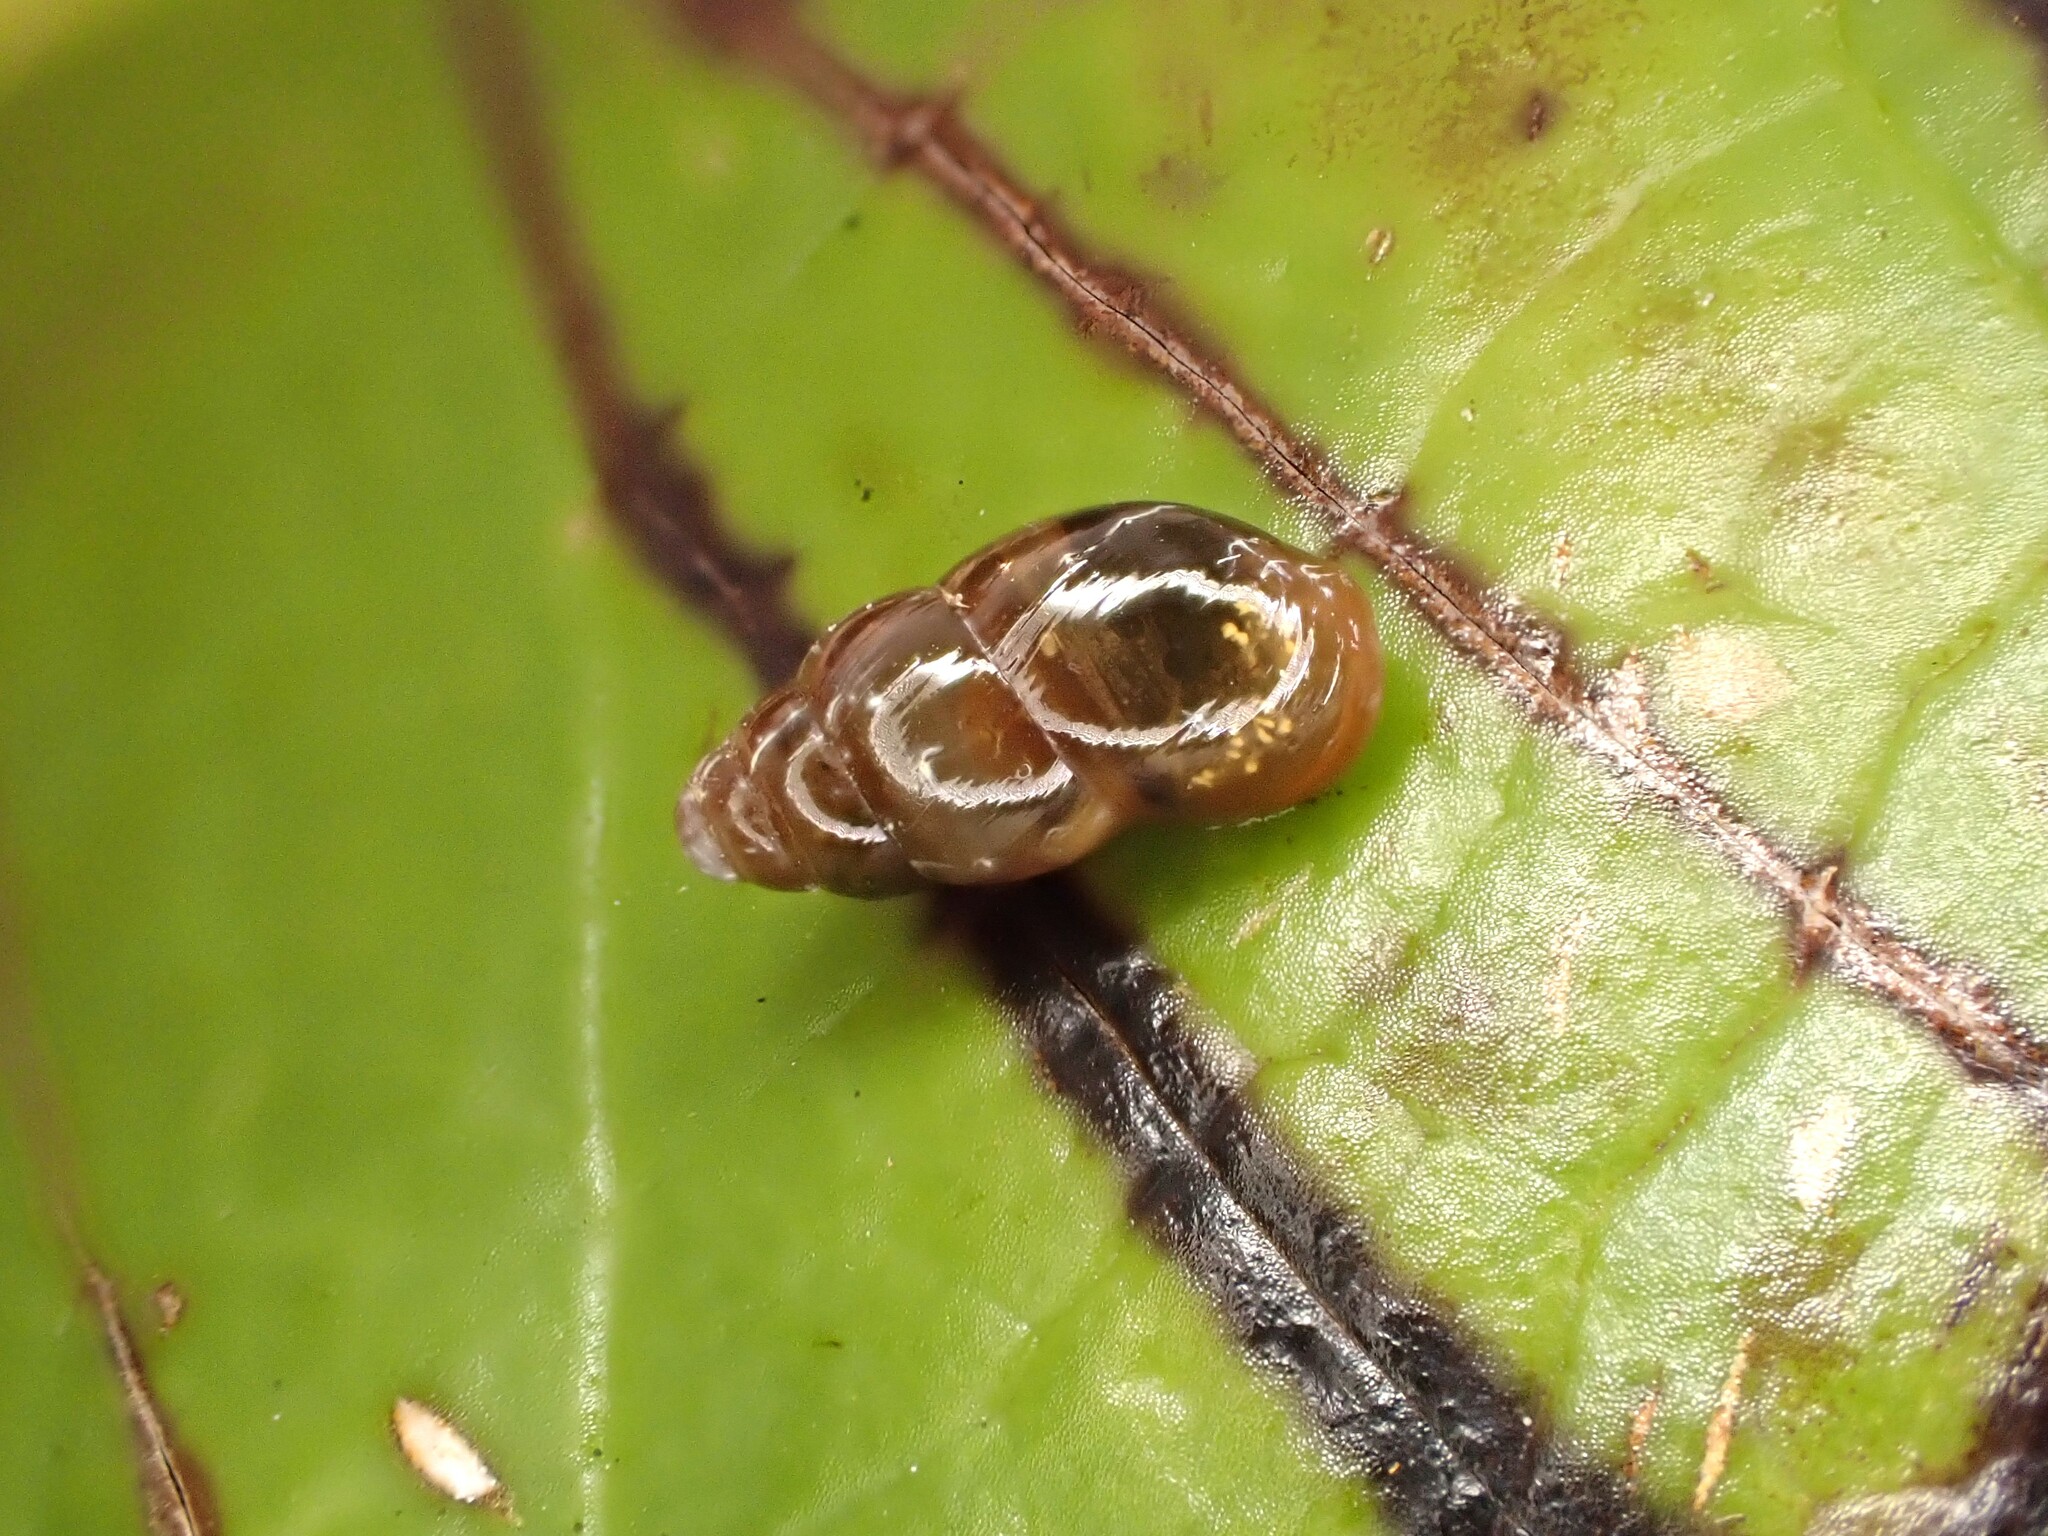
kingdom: Animalia
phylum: Mollusca
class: Gastropoda
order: Stylommatophora
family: Cochlicopidae
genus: Cochlicopa
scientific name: Cochlicopa lubrica
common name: Glossy pillar snail
